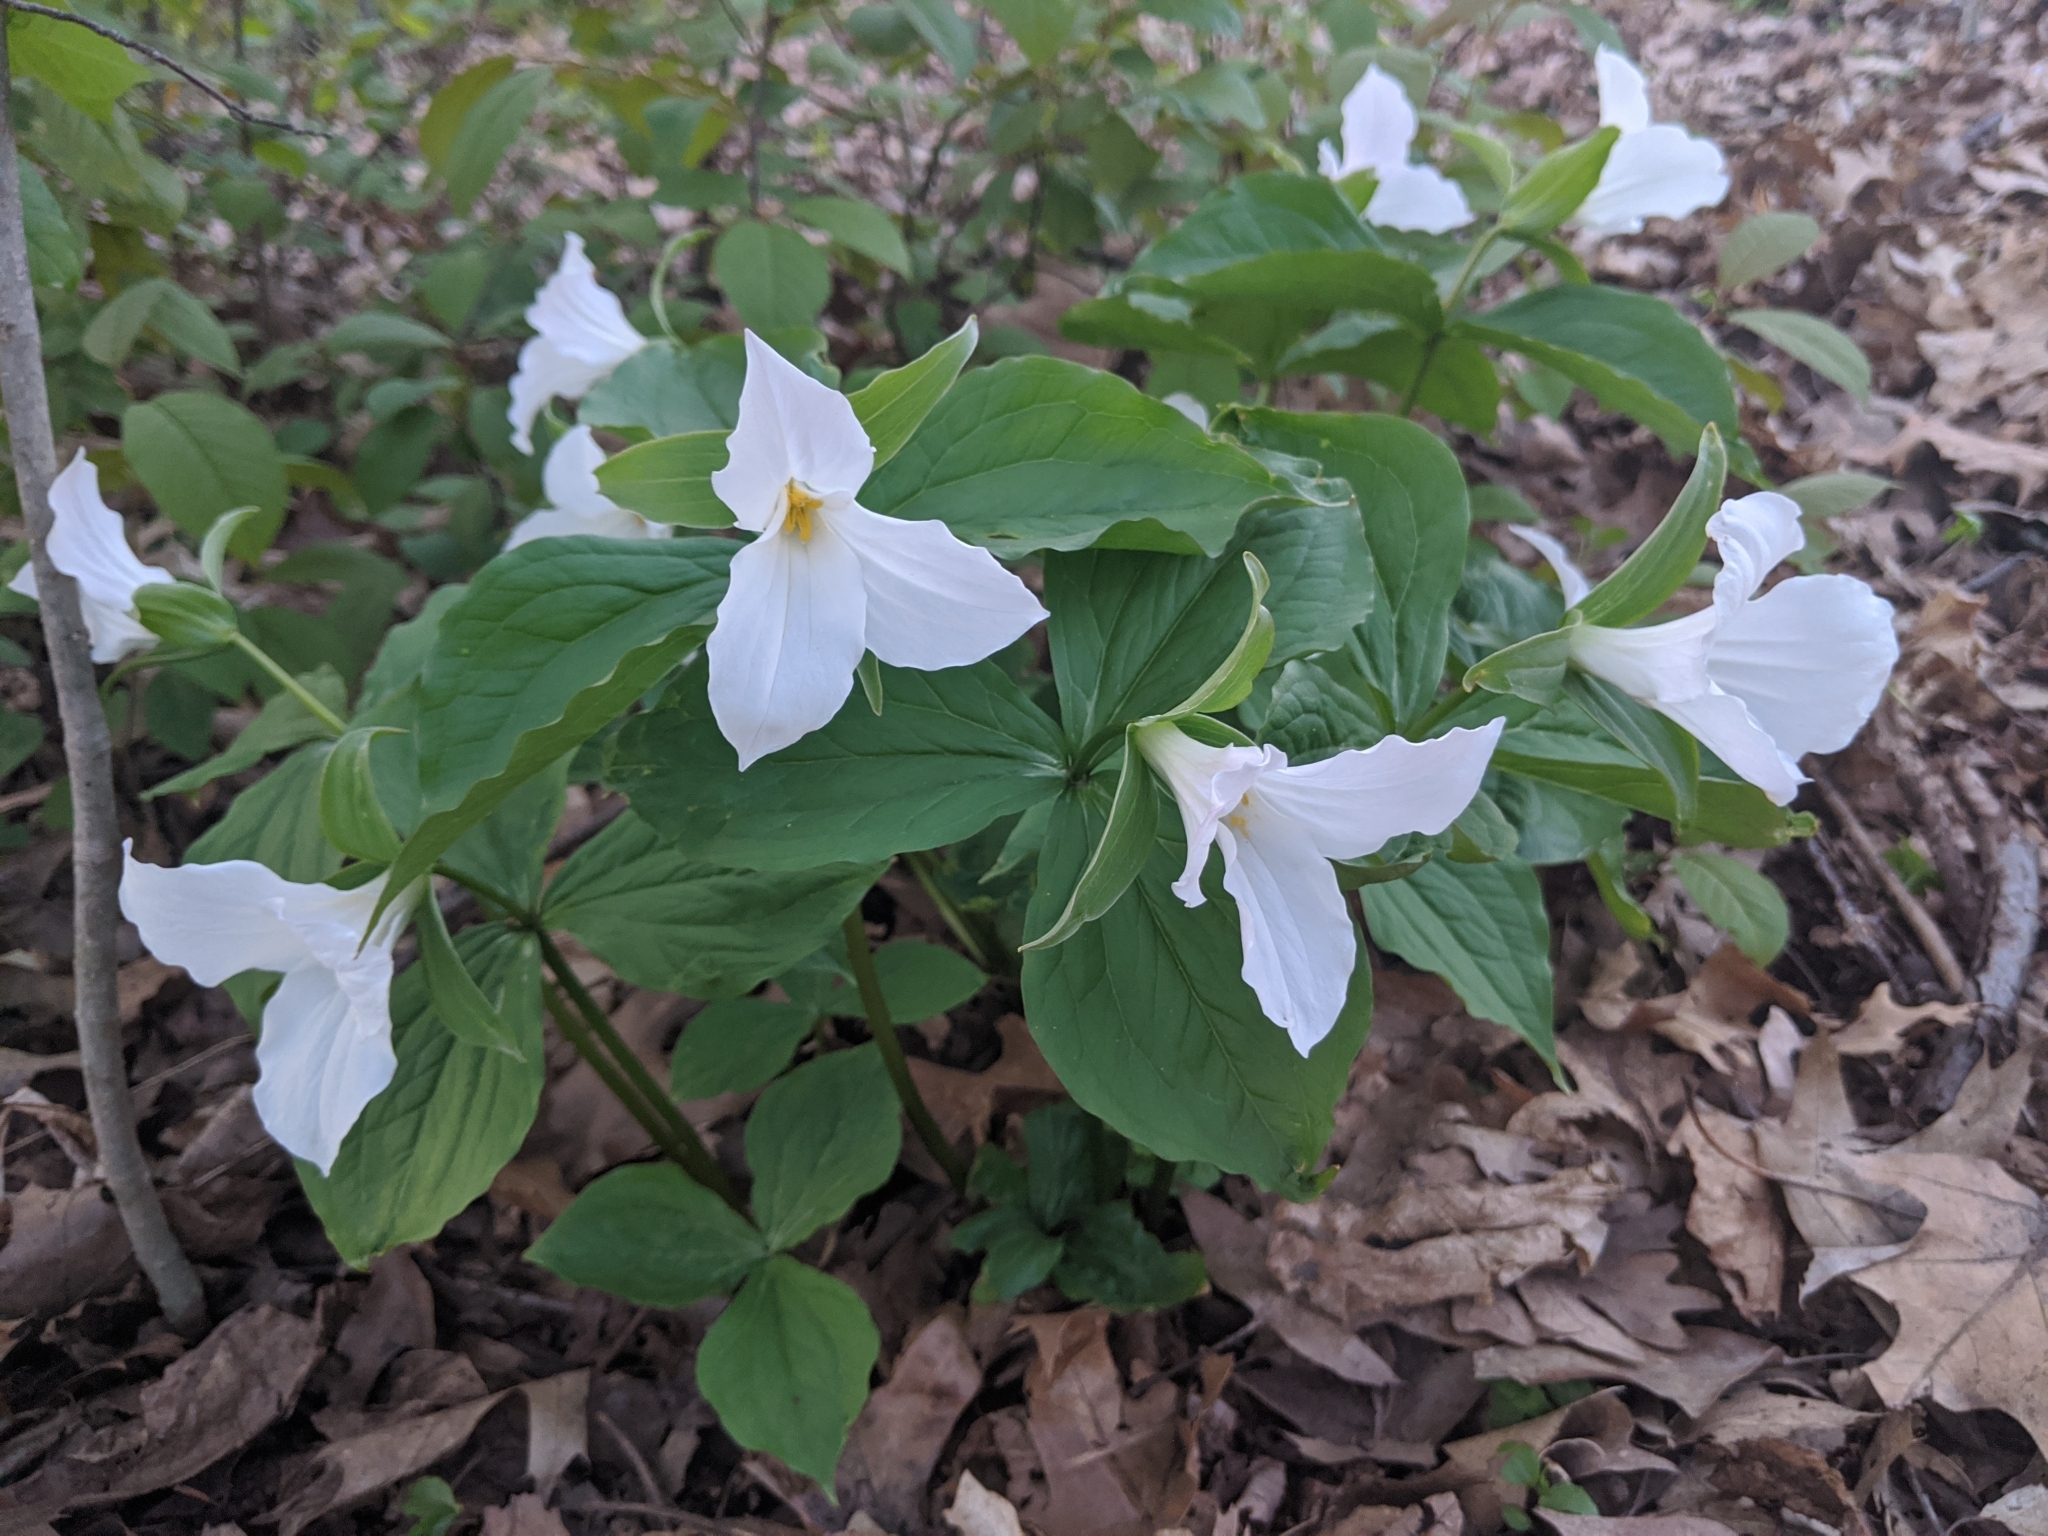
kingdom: Plantae
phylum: Tracheophyta
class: Liliopsida
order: Liliales
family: Melanthiaceae
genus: Trillium
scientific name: Trillium grandiflorum
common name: Great white trillium
